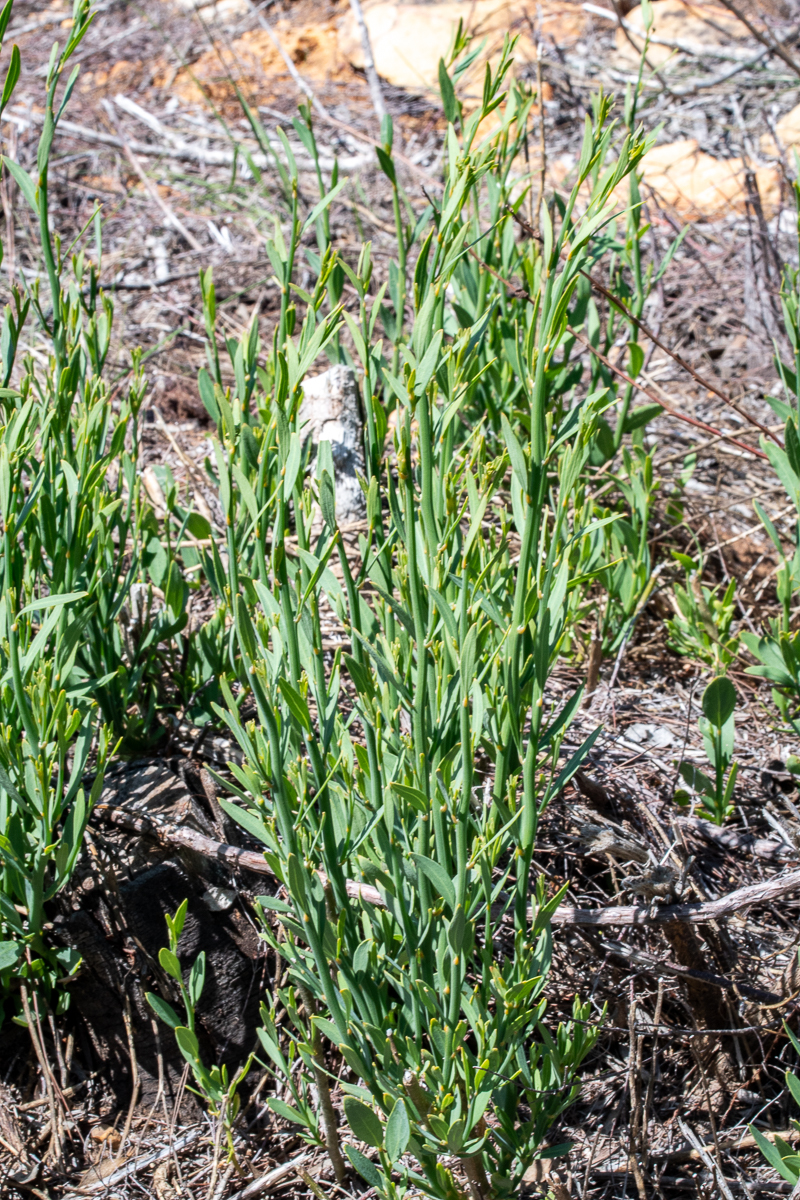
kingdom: Plantae
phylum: Tracheophyta
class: Magnoliopsida
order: Solanales
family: Montiniaceae
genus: Montinia
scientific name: Montinia caryophyllacea
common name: Wild clove-bush
